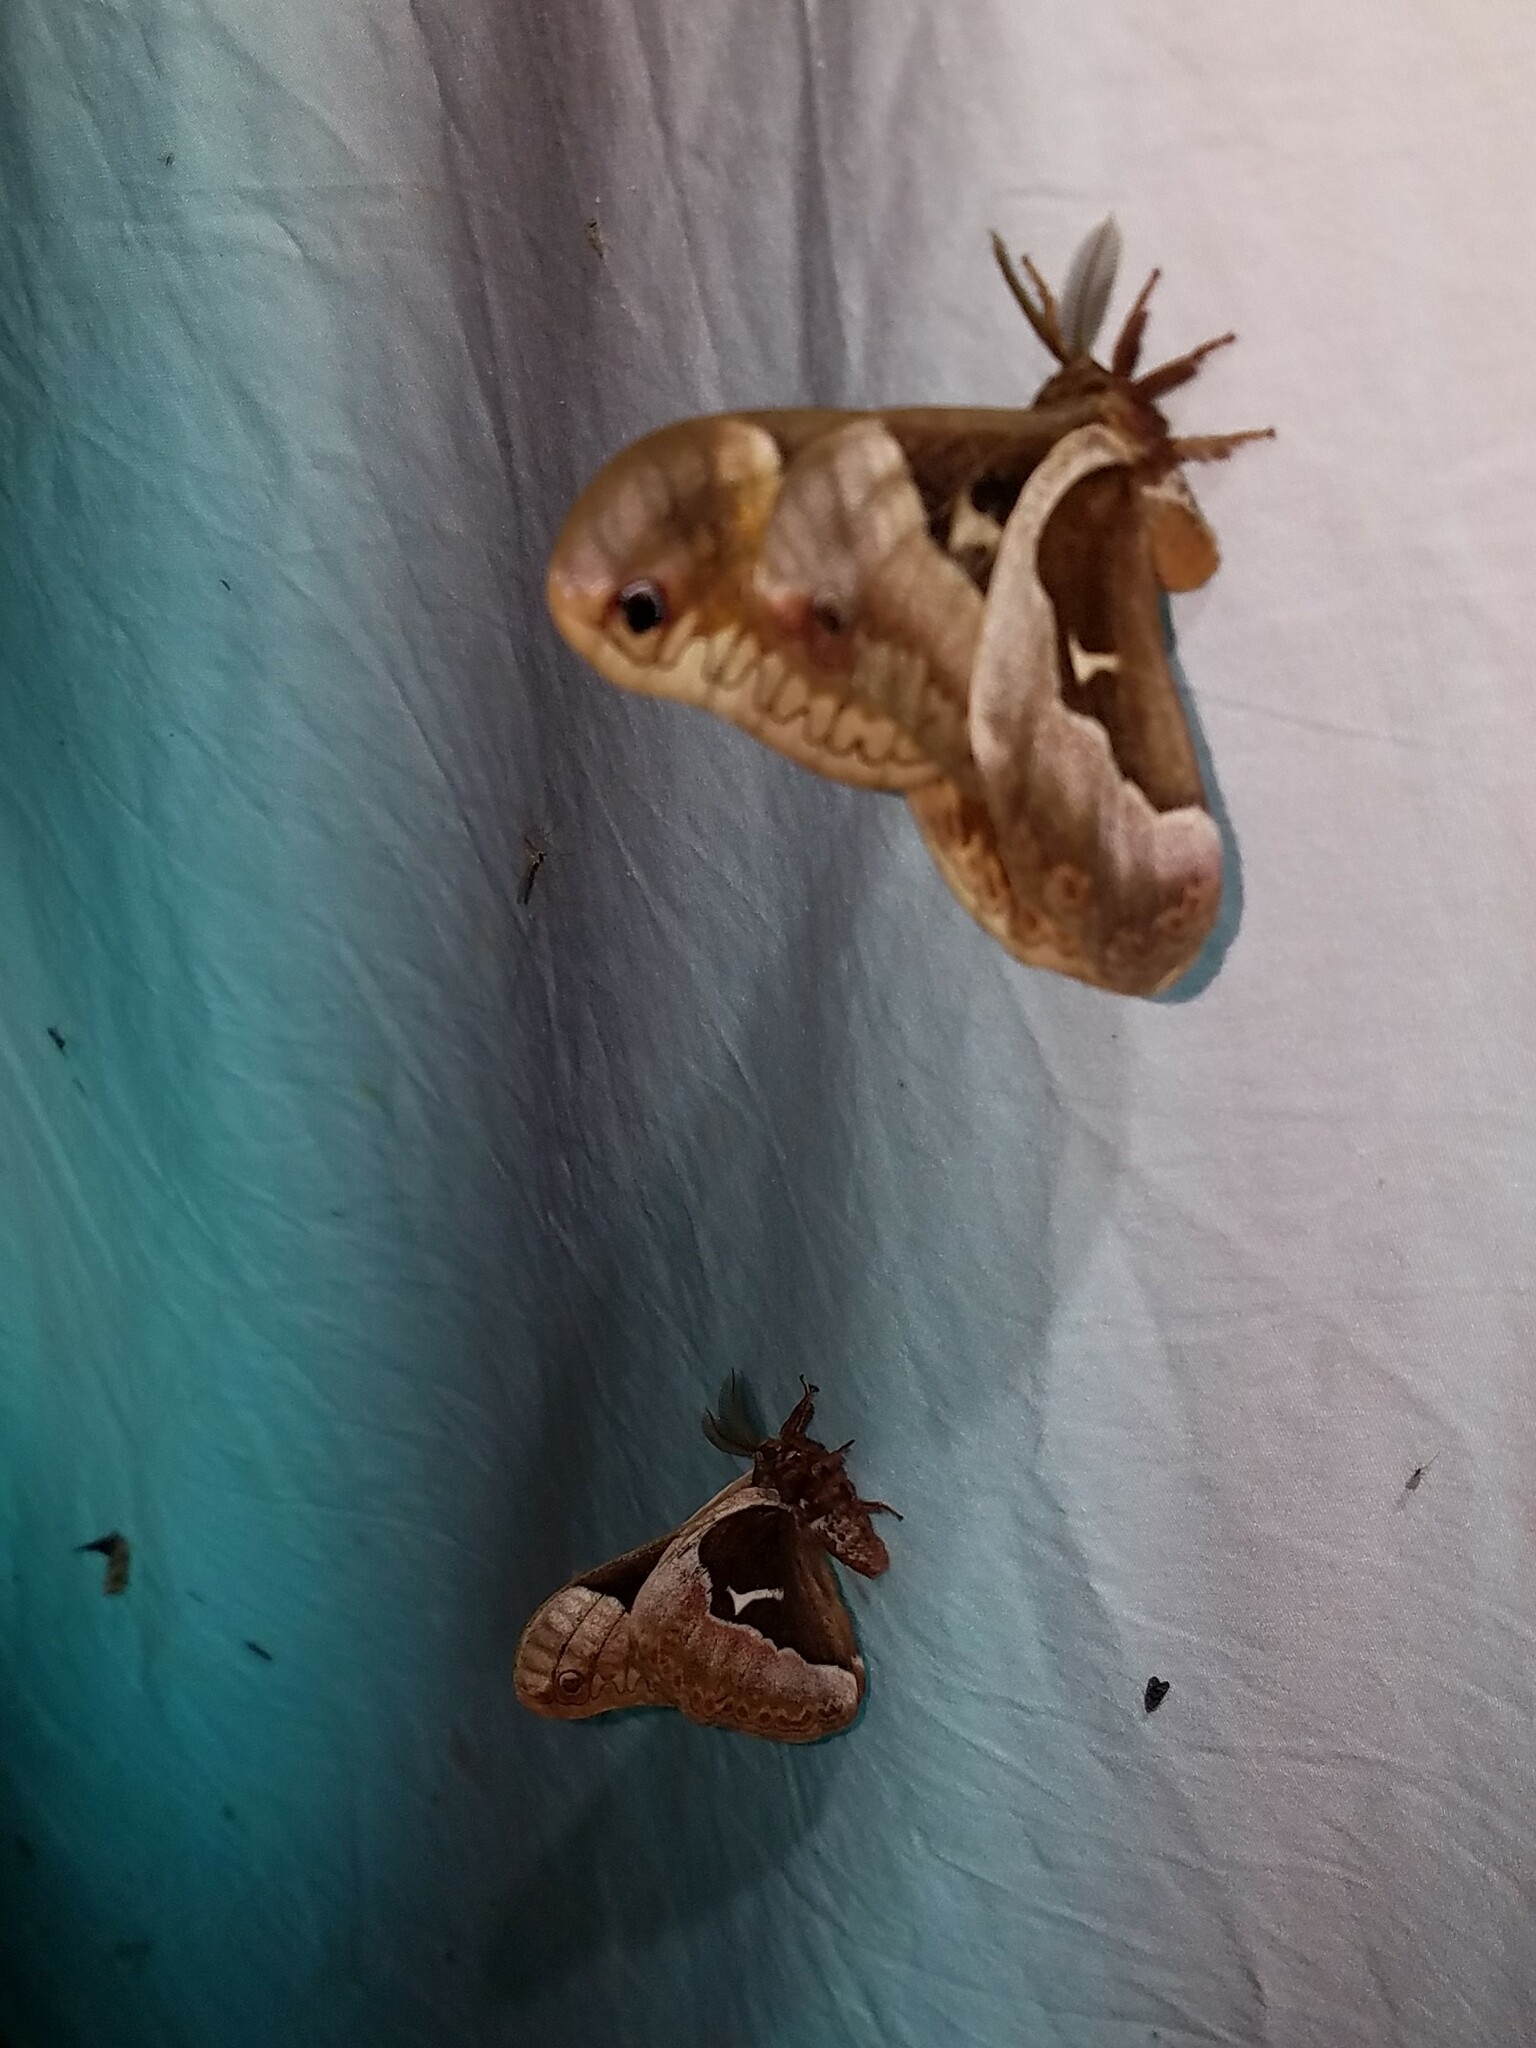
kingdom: Animalia
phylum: Arthropoda
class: Insecta
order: Lepidoptera
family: Saturniidae
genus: Callosamia
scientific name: Callosamia angulifera
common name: Tulip tree silkmoth
